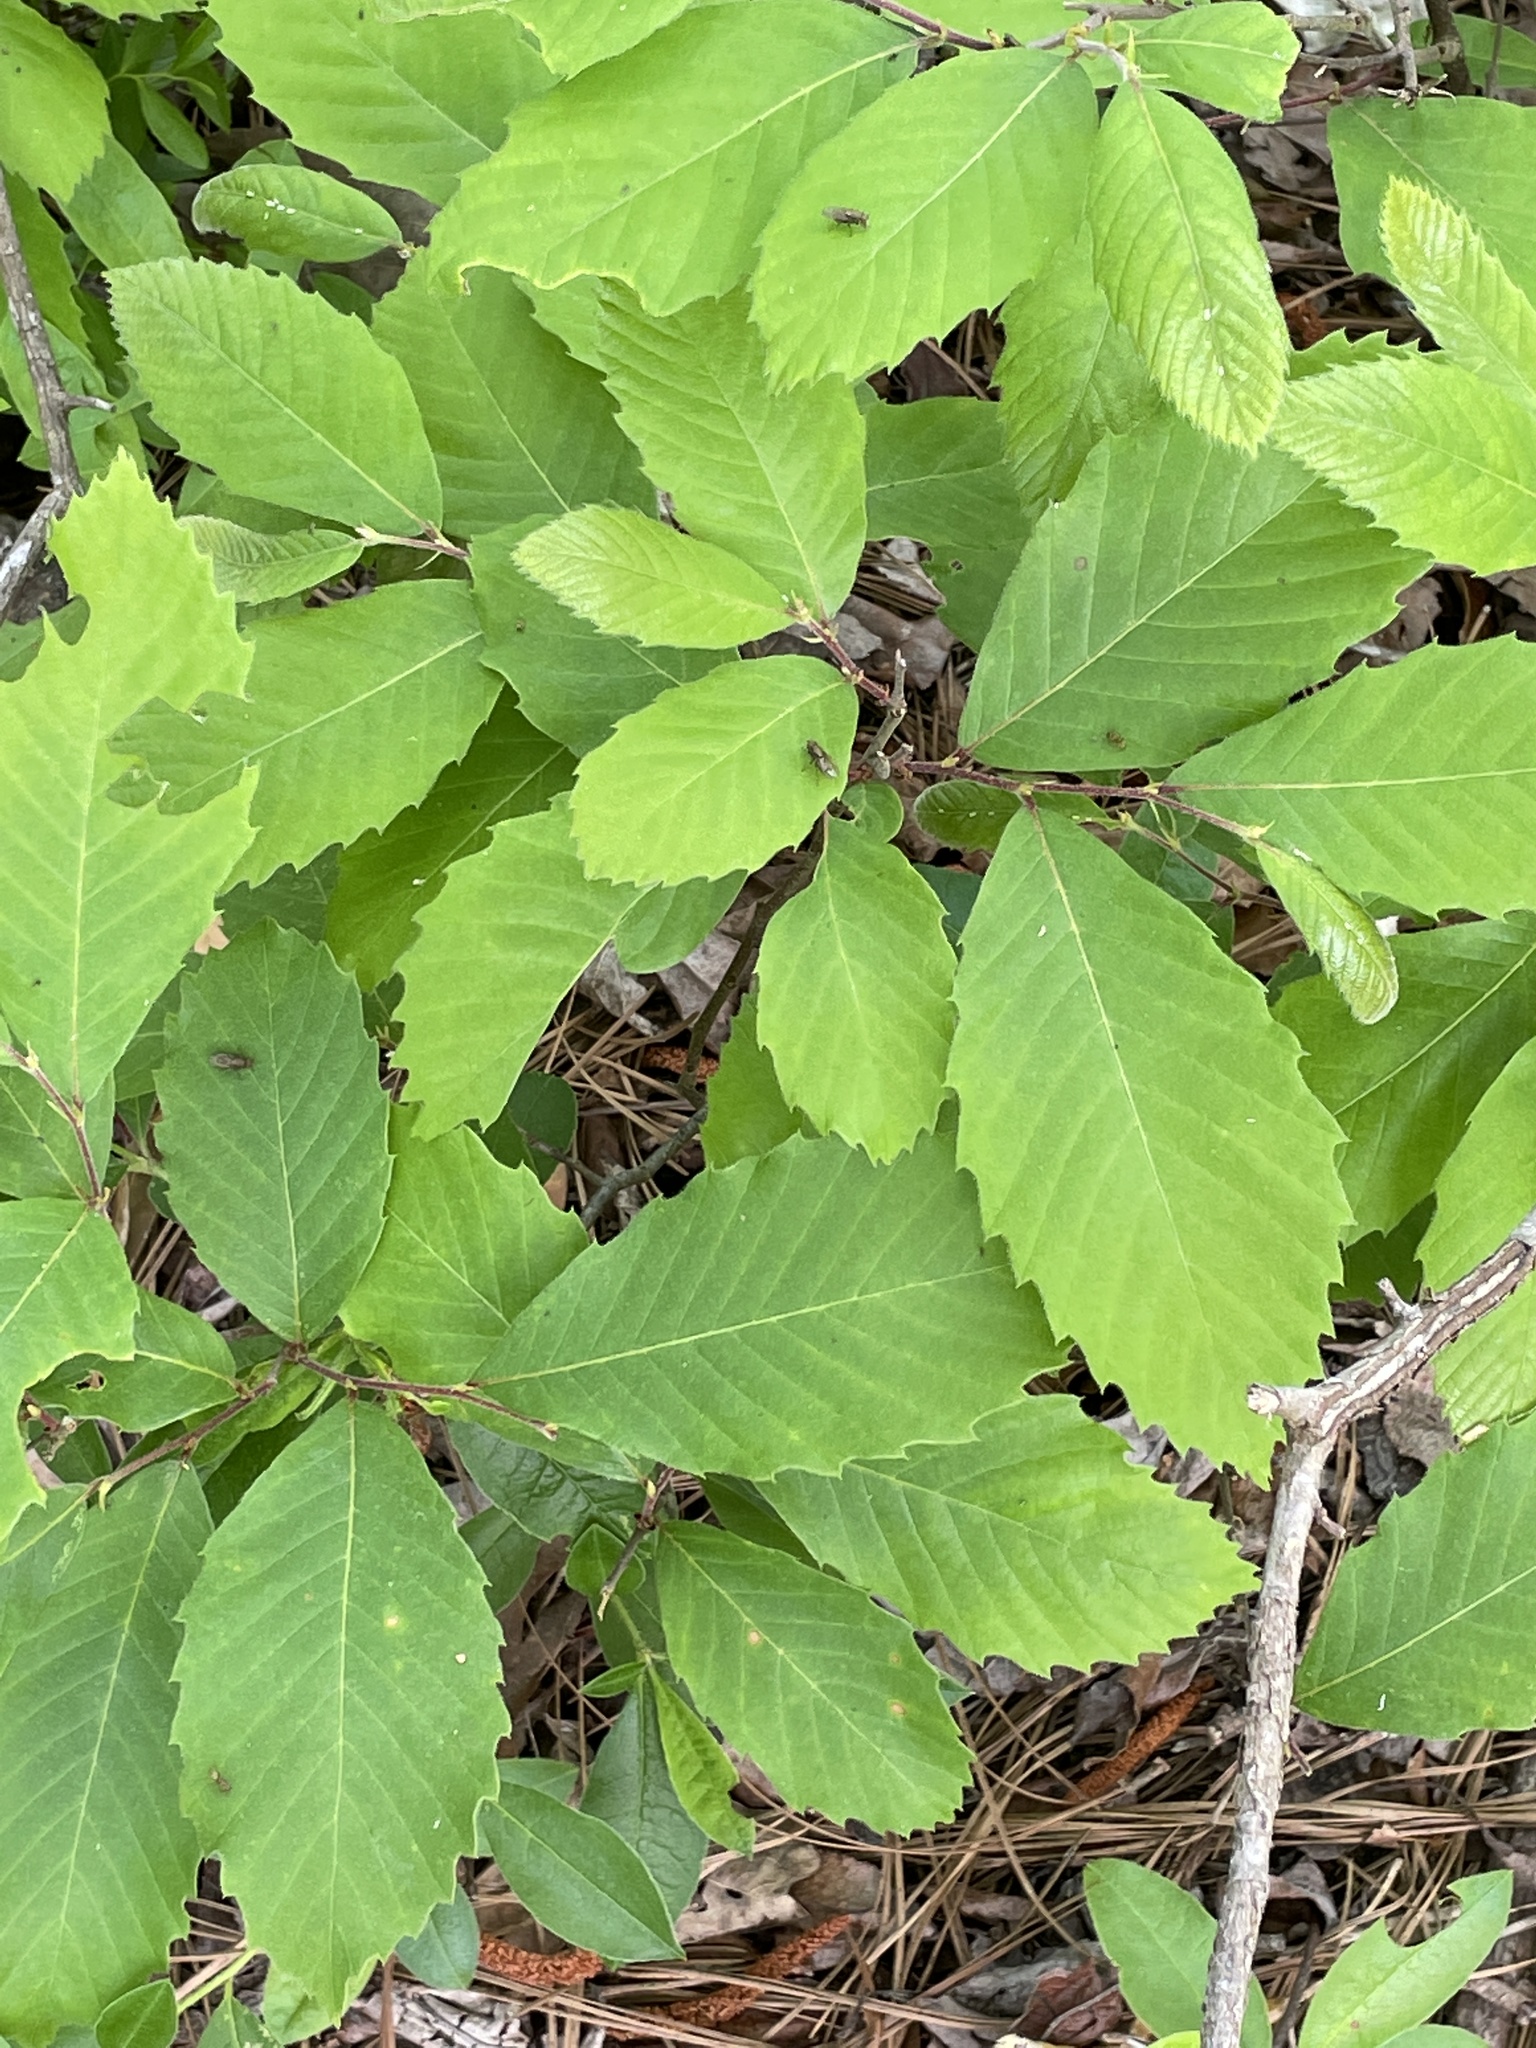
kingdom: Plantae
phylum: Tracheophyta
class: Magnoliopsida
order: Fagales
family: Fagaceae
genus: Castanea
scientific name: Castanea pumila
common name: Chinkapin
